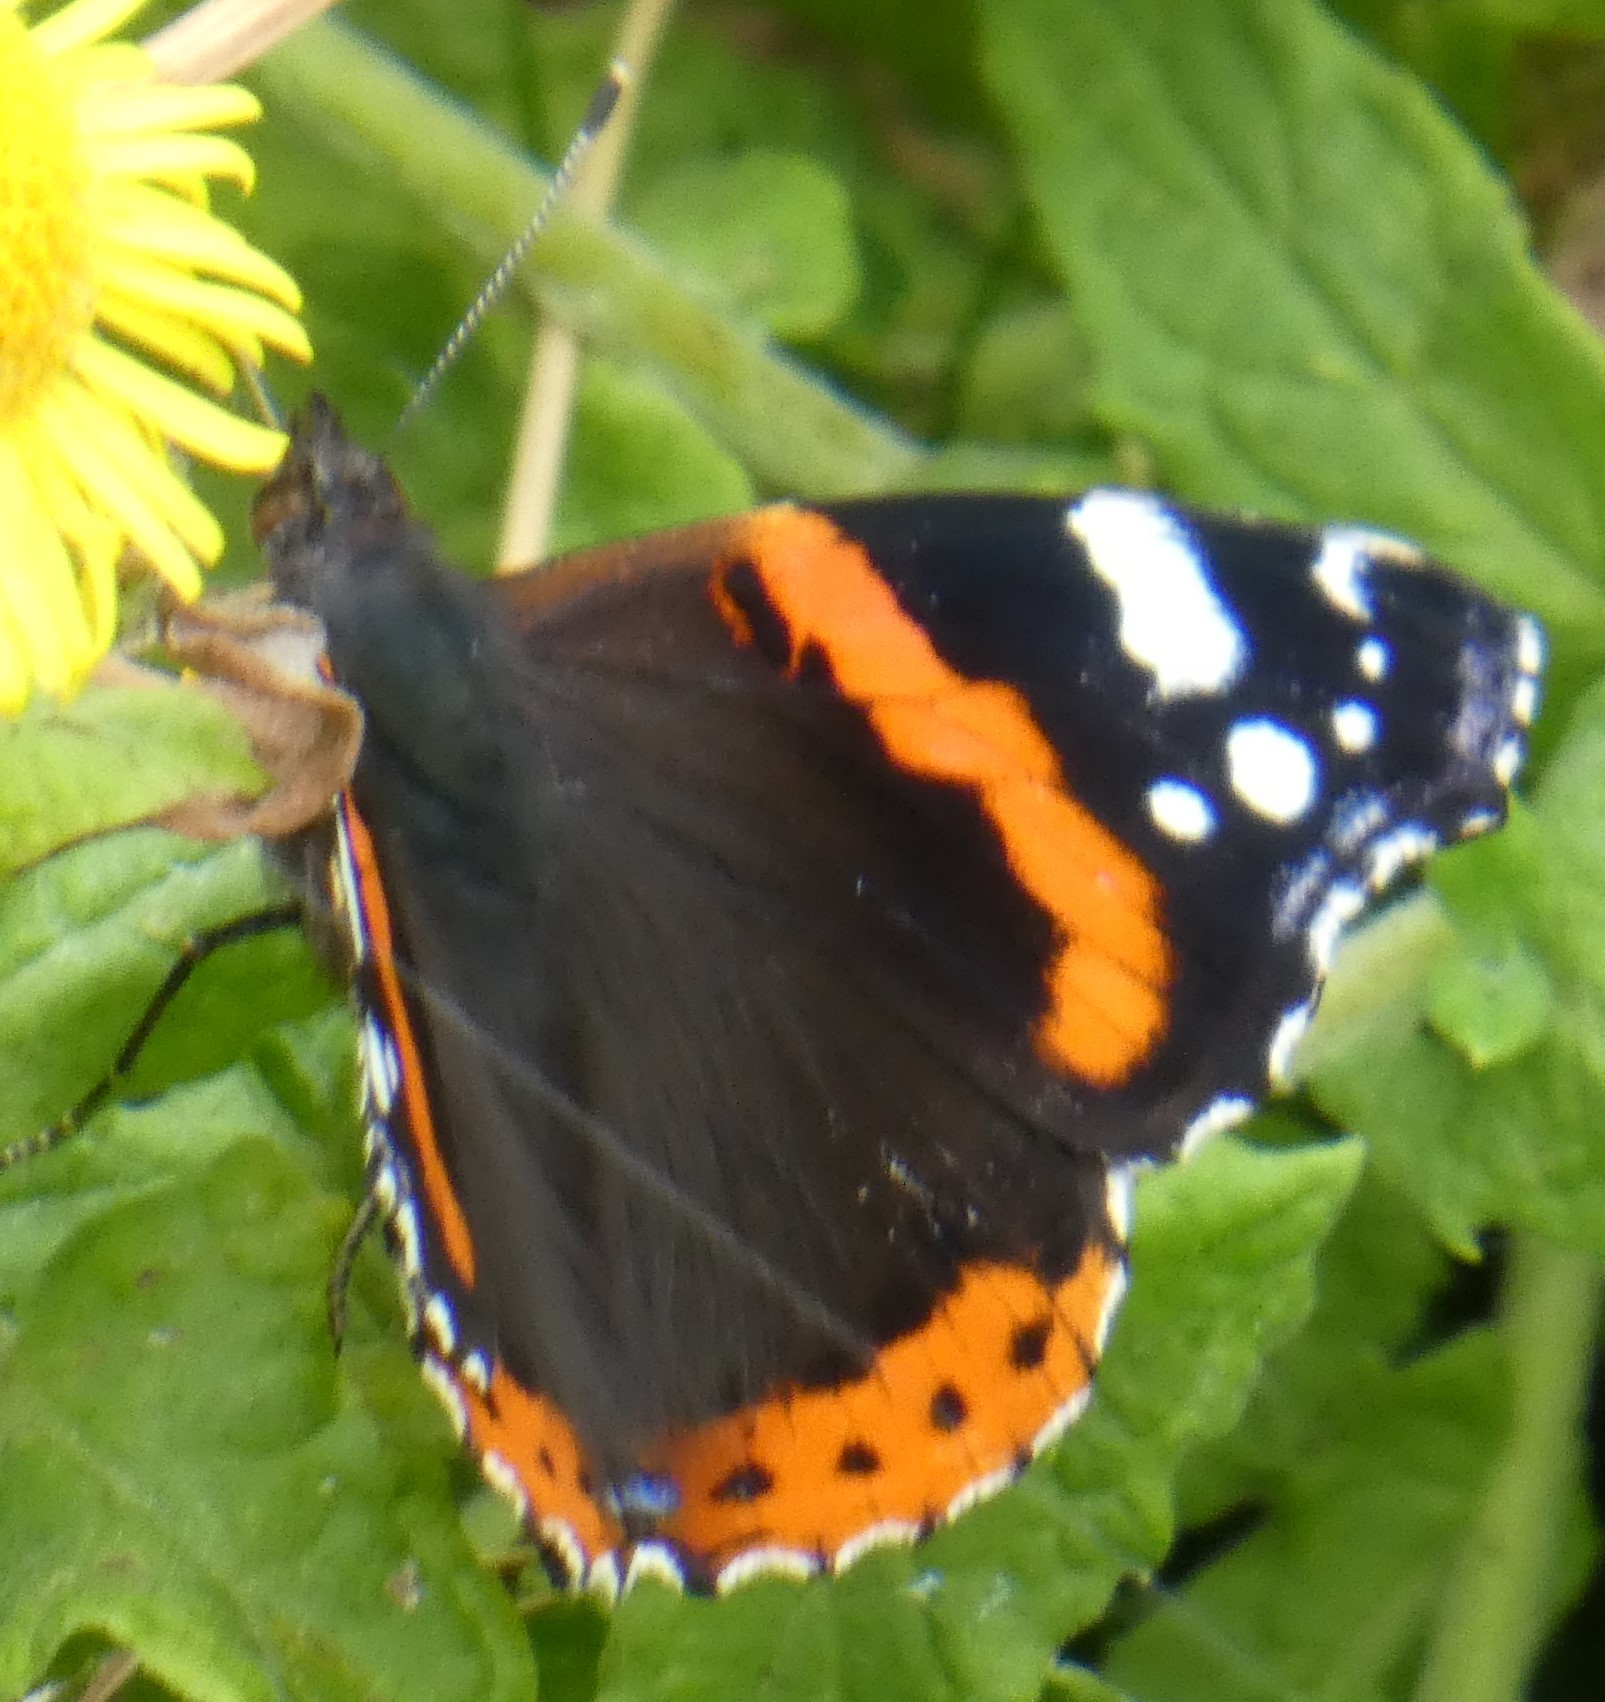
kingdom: Animalia
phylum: Arthropoda
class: Insecta
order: Lepidoptera
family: Nymphalidae
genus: Vanessa
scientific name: Vanessa atalanta
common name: Red admiral
